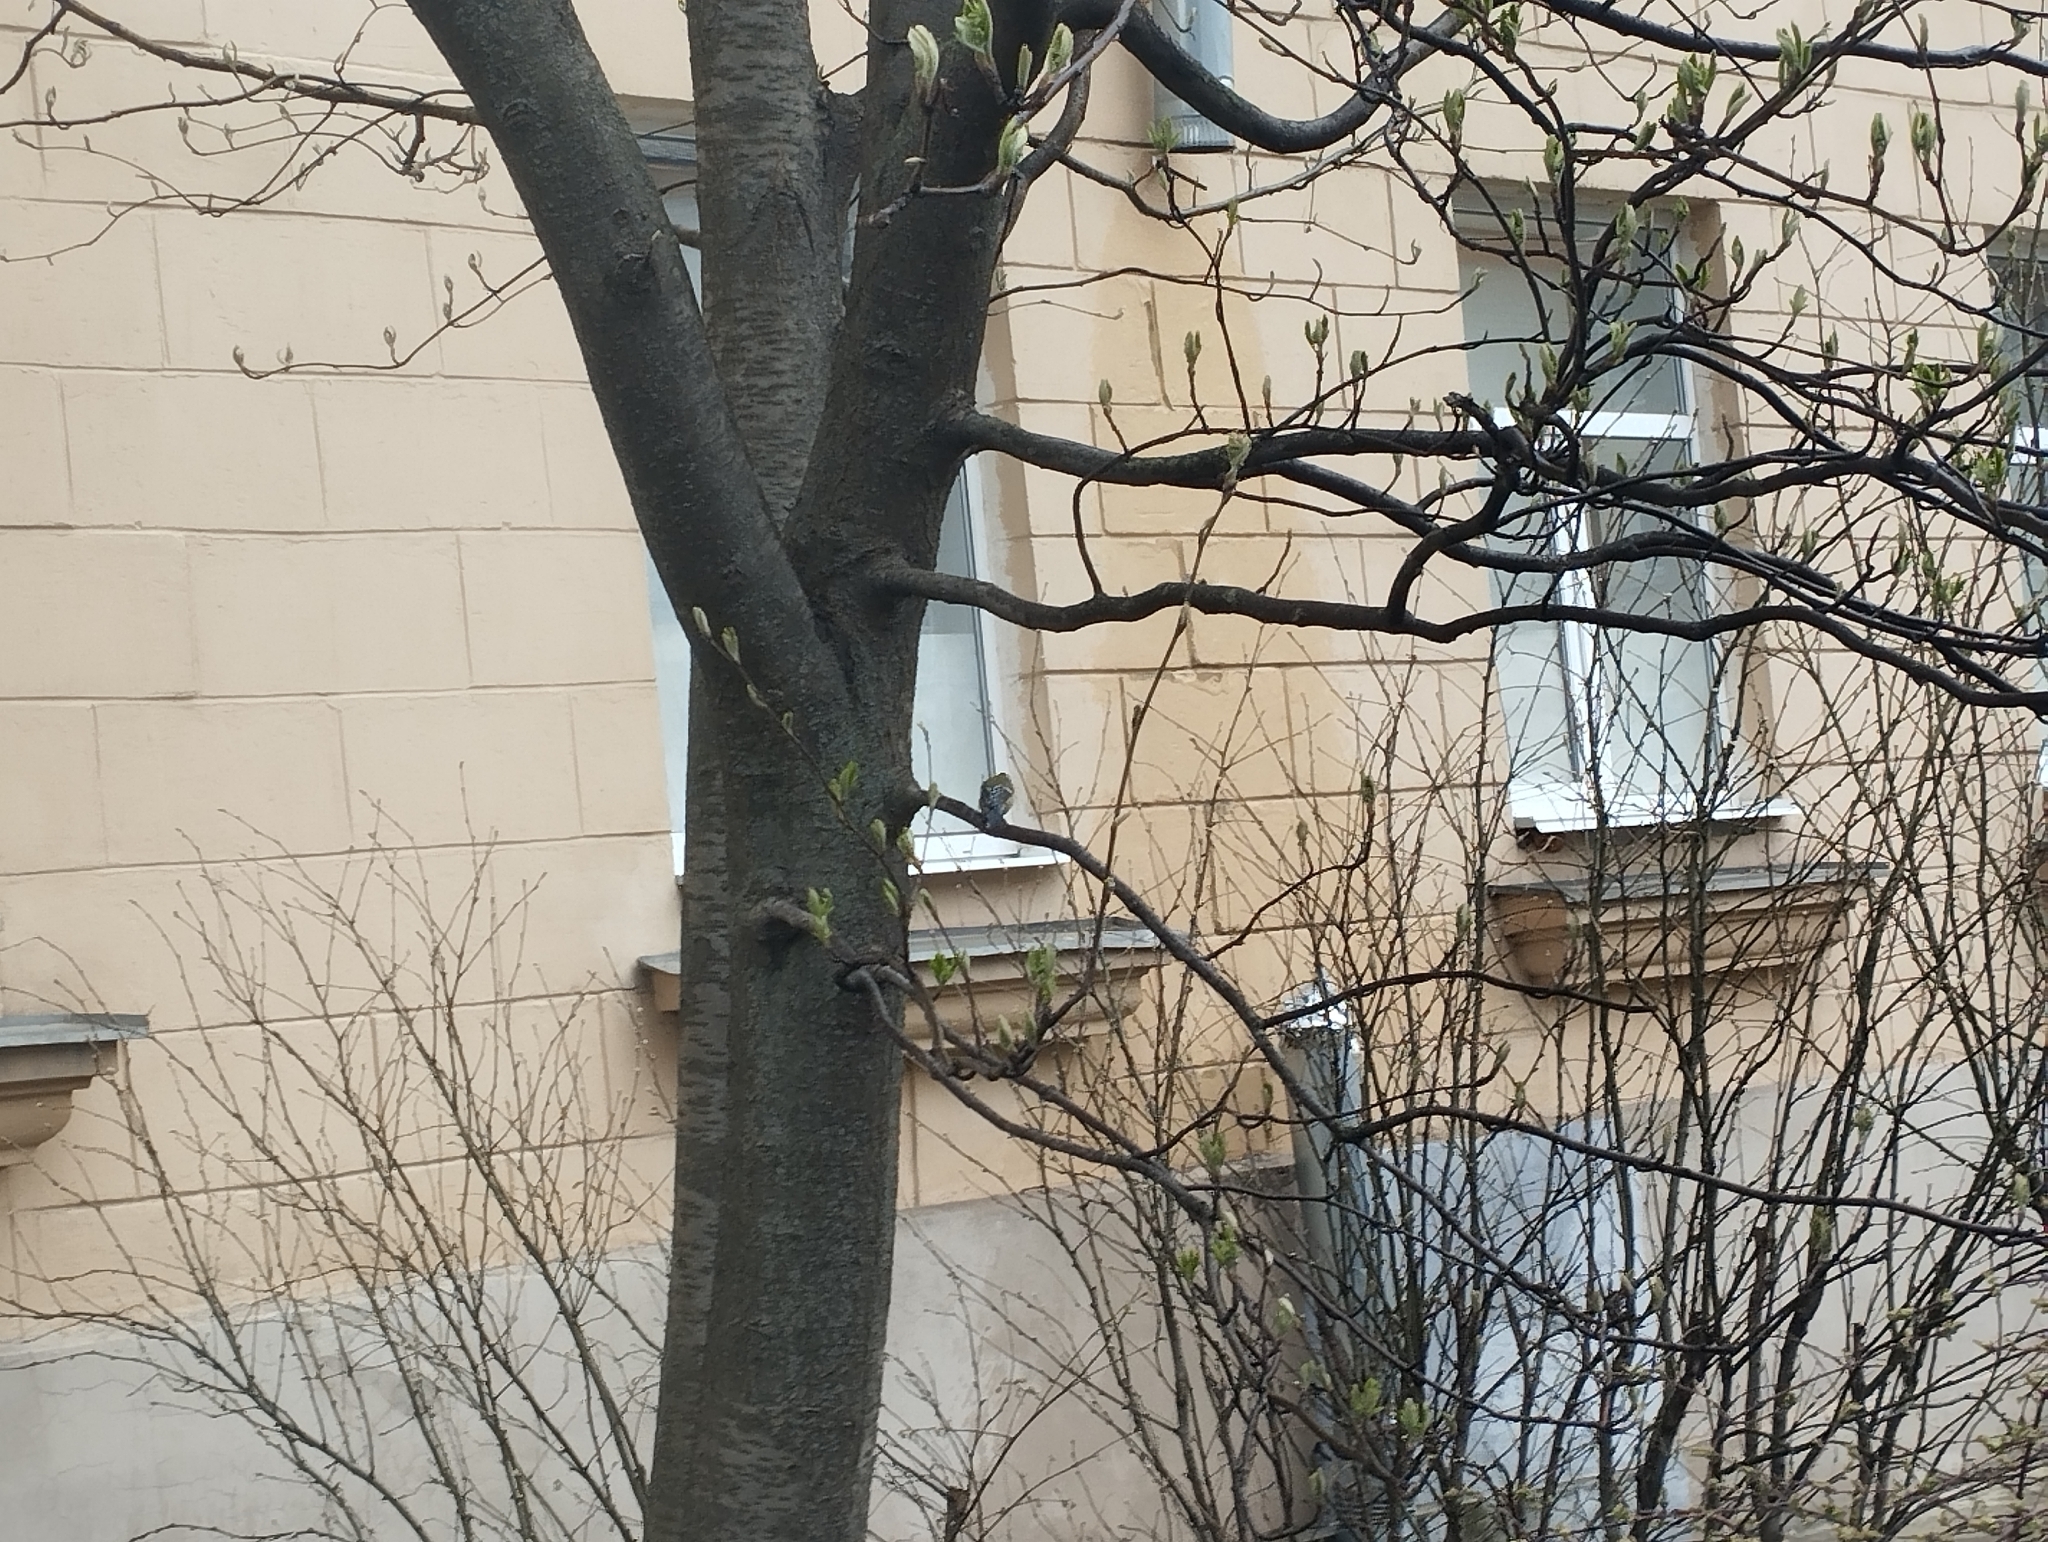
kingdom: Animalia
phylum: Chordata
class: Aves
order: Passeriformes
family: Paridae
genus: Parus
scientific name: Parus major
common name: Great tit
